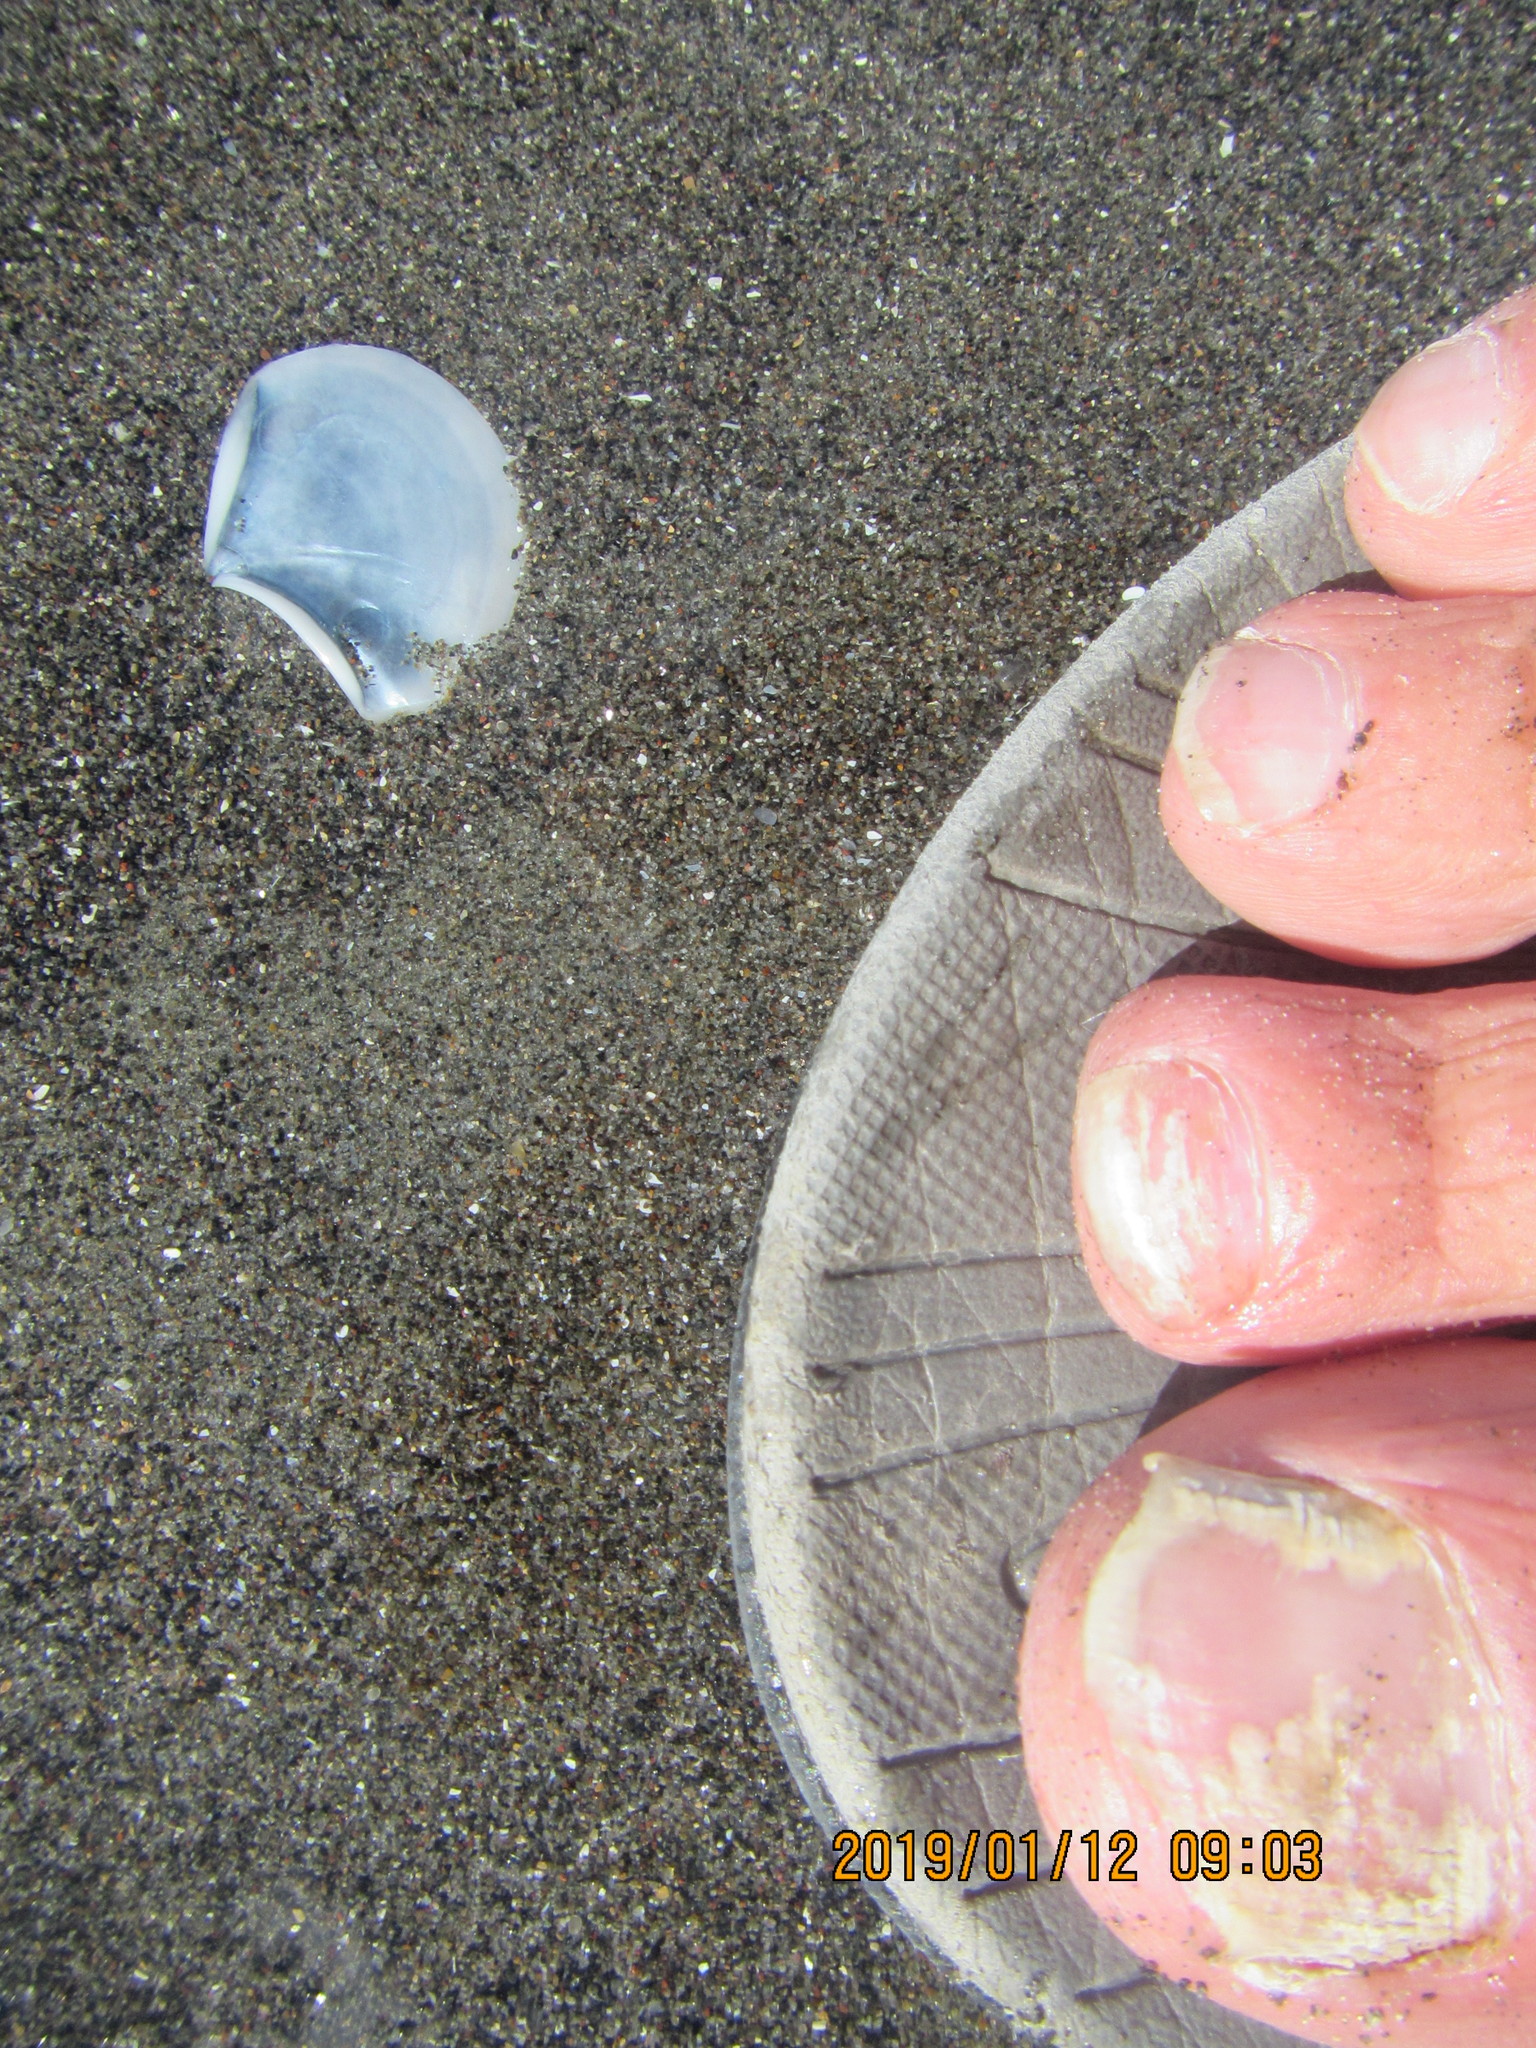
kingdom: Animalia
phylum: Mollusca
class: Bivalvia
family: Myochamidae
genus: Myadora
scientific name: Myadora striata
